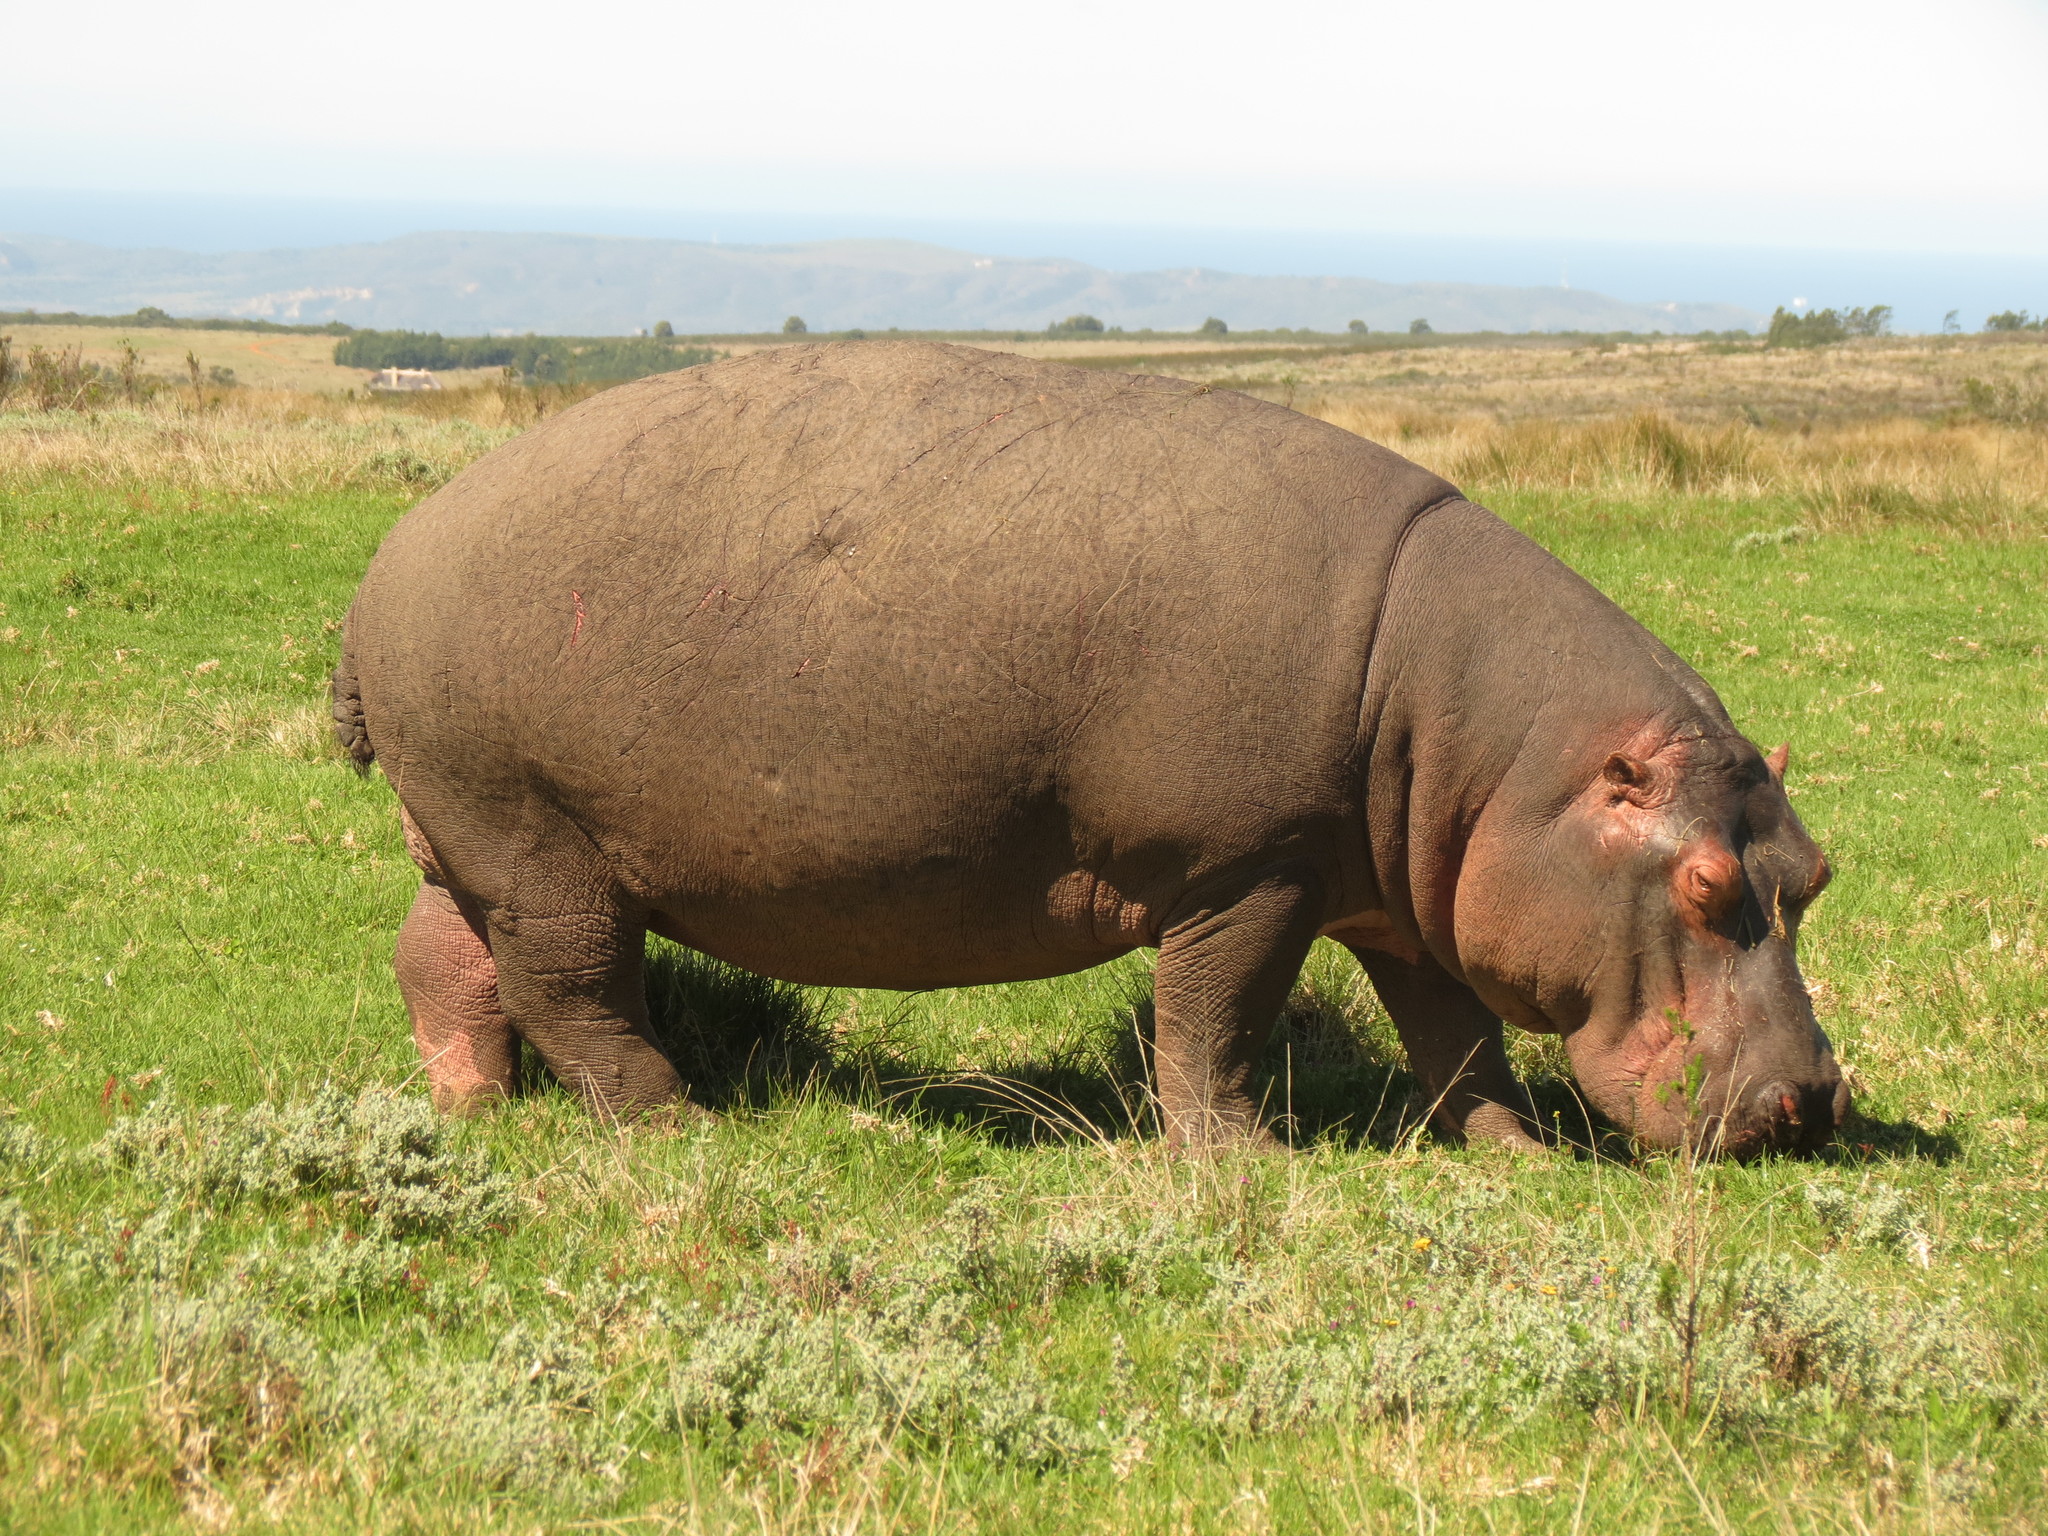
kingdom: Animalia
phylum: Chordata
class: Mammalia
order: Artiodactyla
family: Hippopotamidae
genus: Hippopotamus
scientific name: Hippopotamus amphibius
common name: Common hippopotamus
